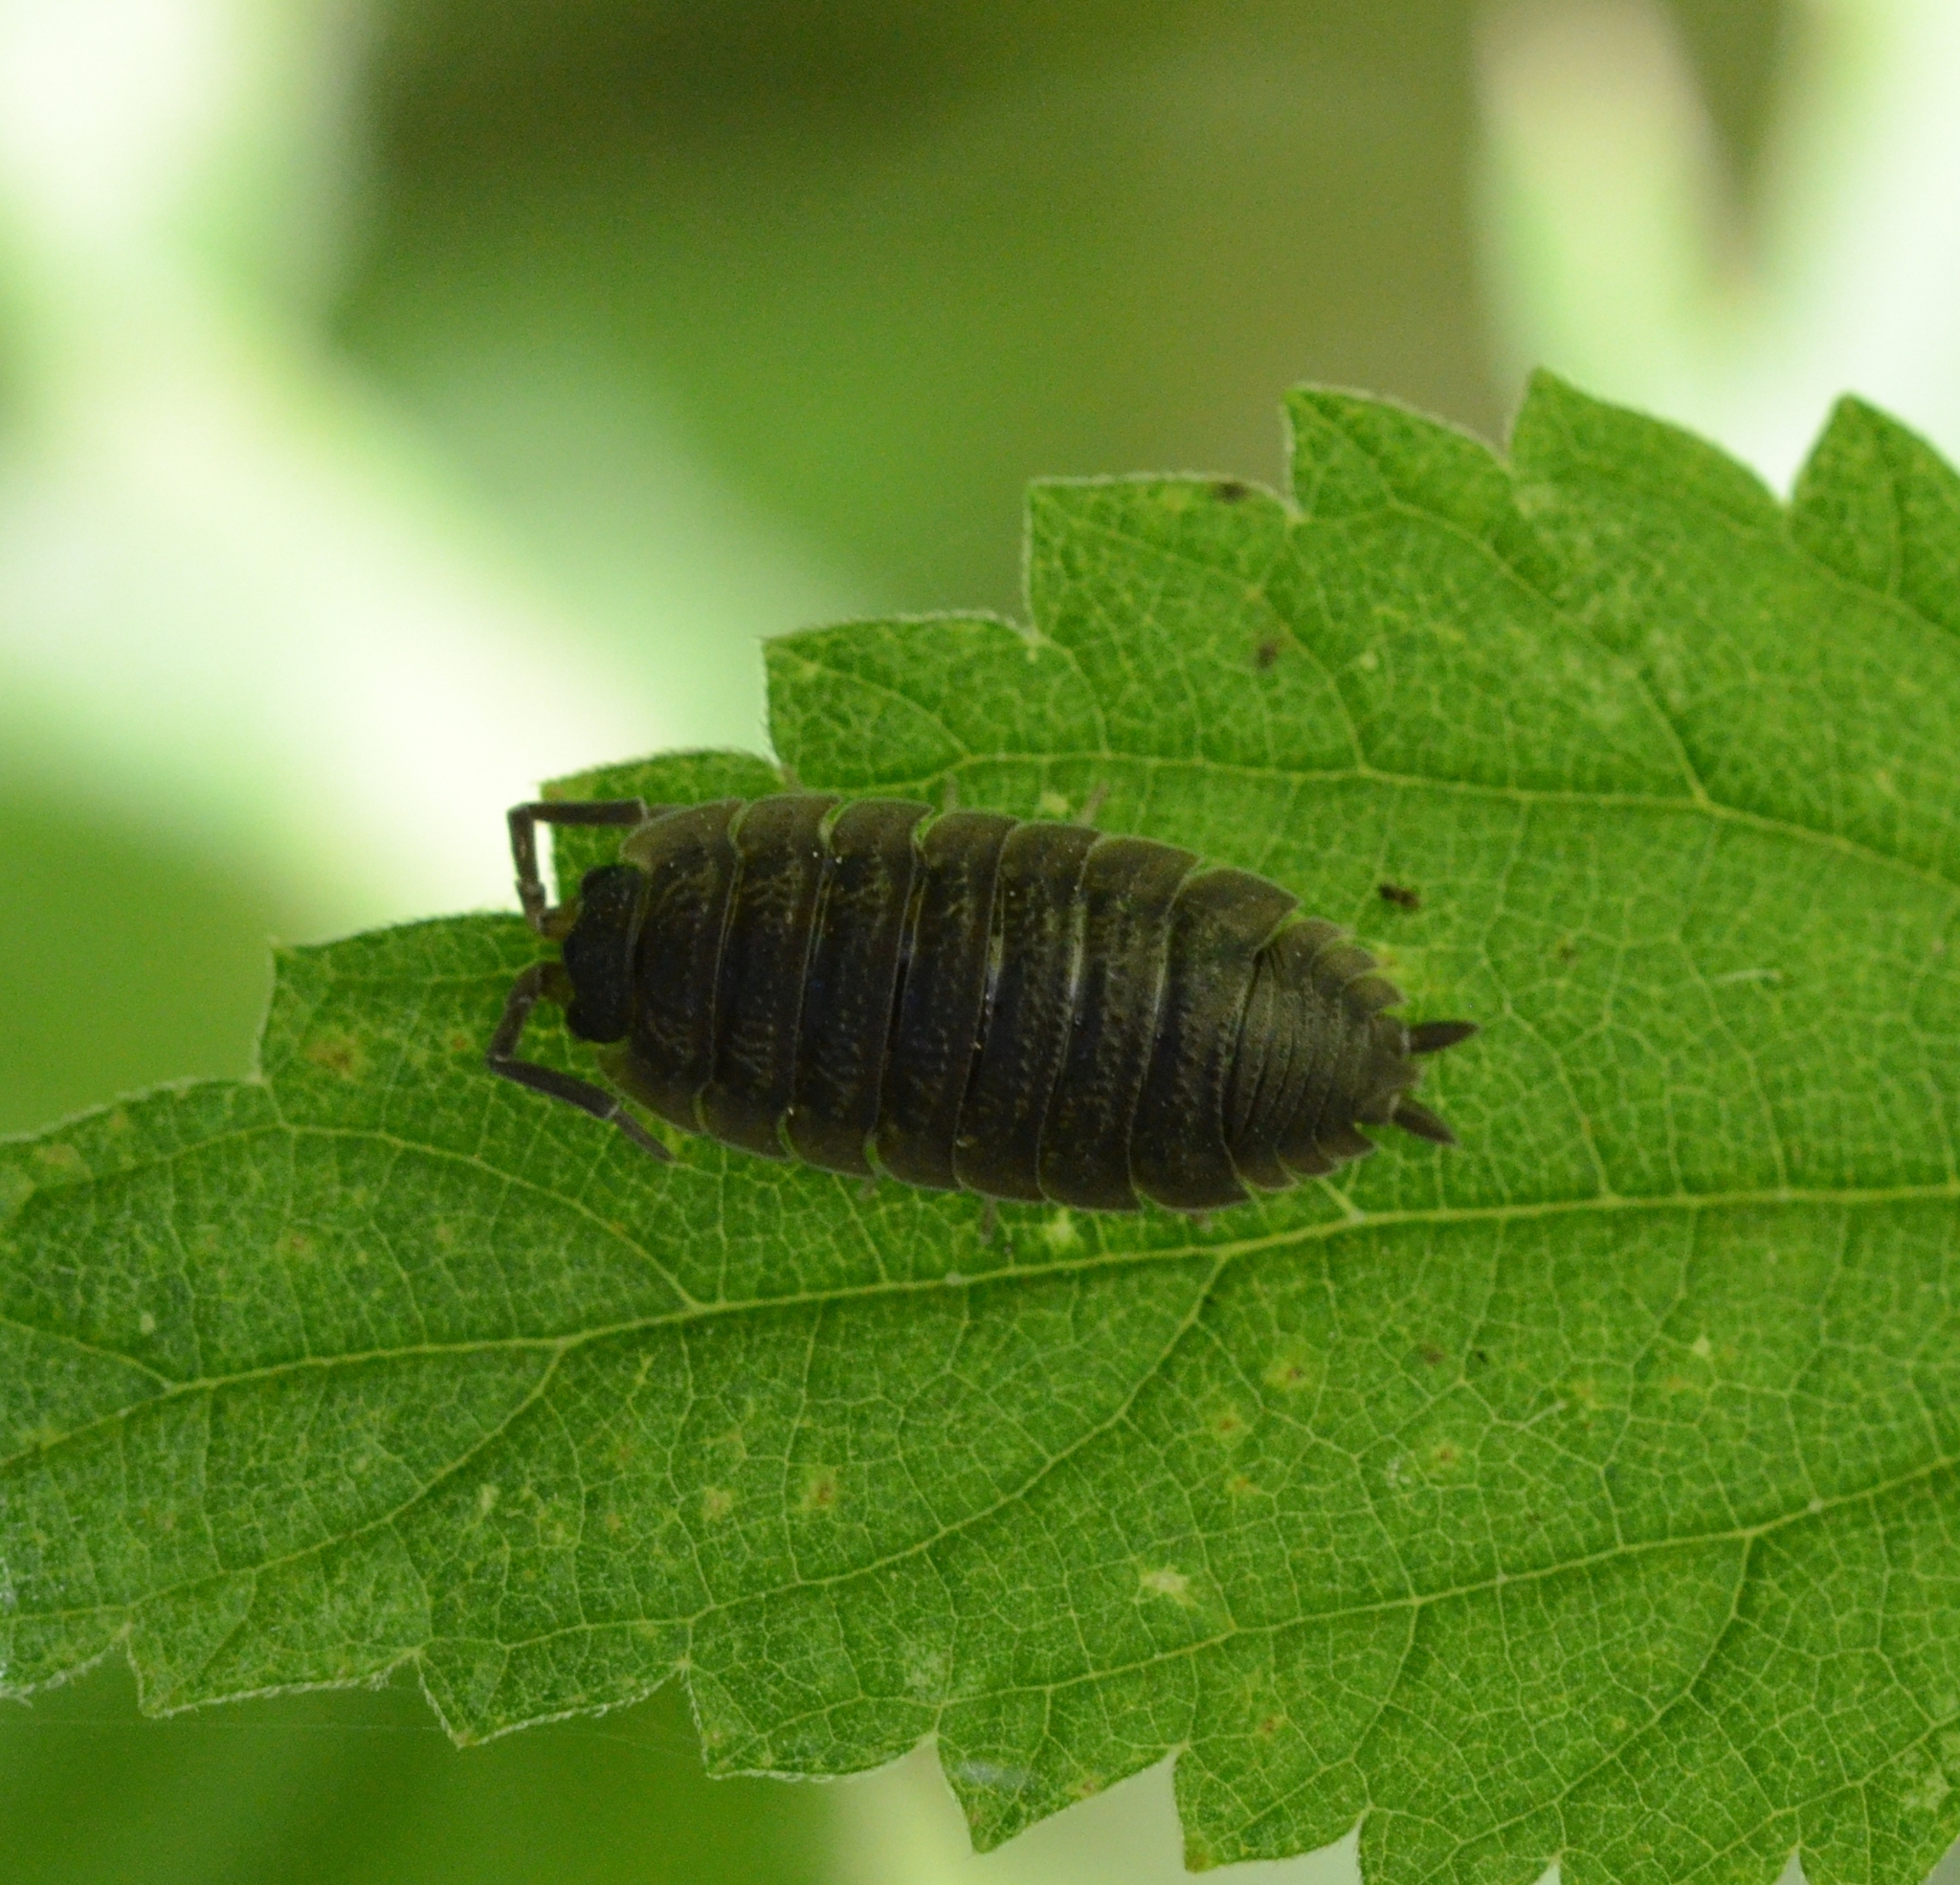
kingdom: Animalia
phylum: Arthropoda
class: Malacostraca
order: Isopoda
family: Porcellionidae
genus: Porcellio
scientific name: Porcellio scaber
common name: Common rough woodlouse
